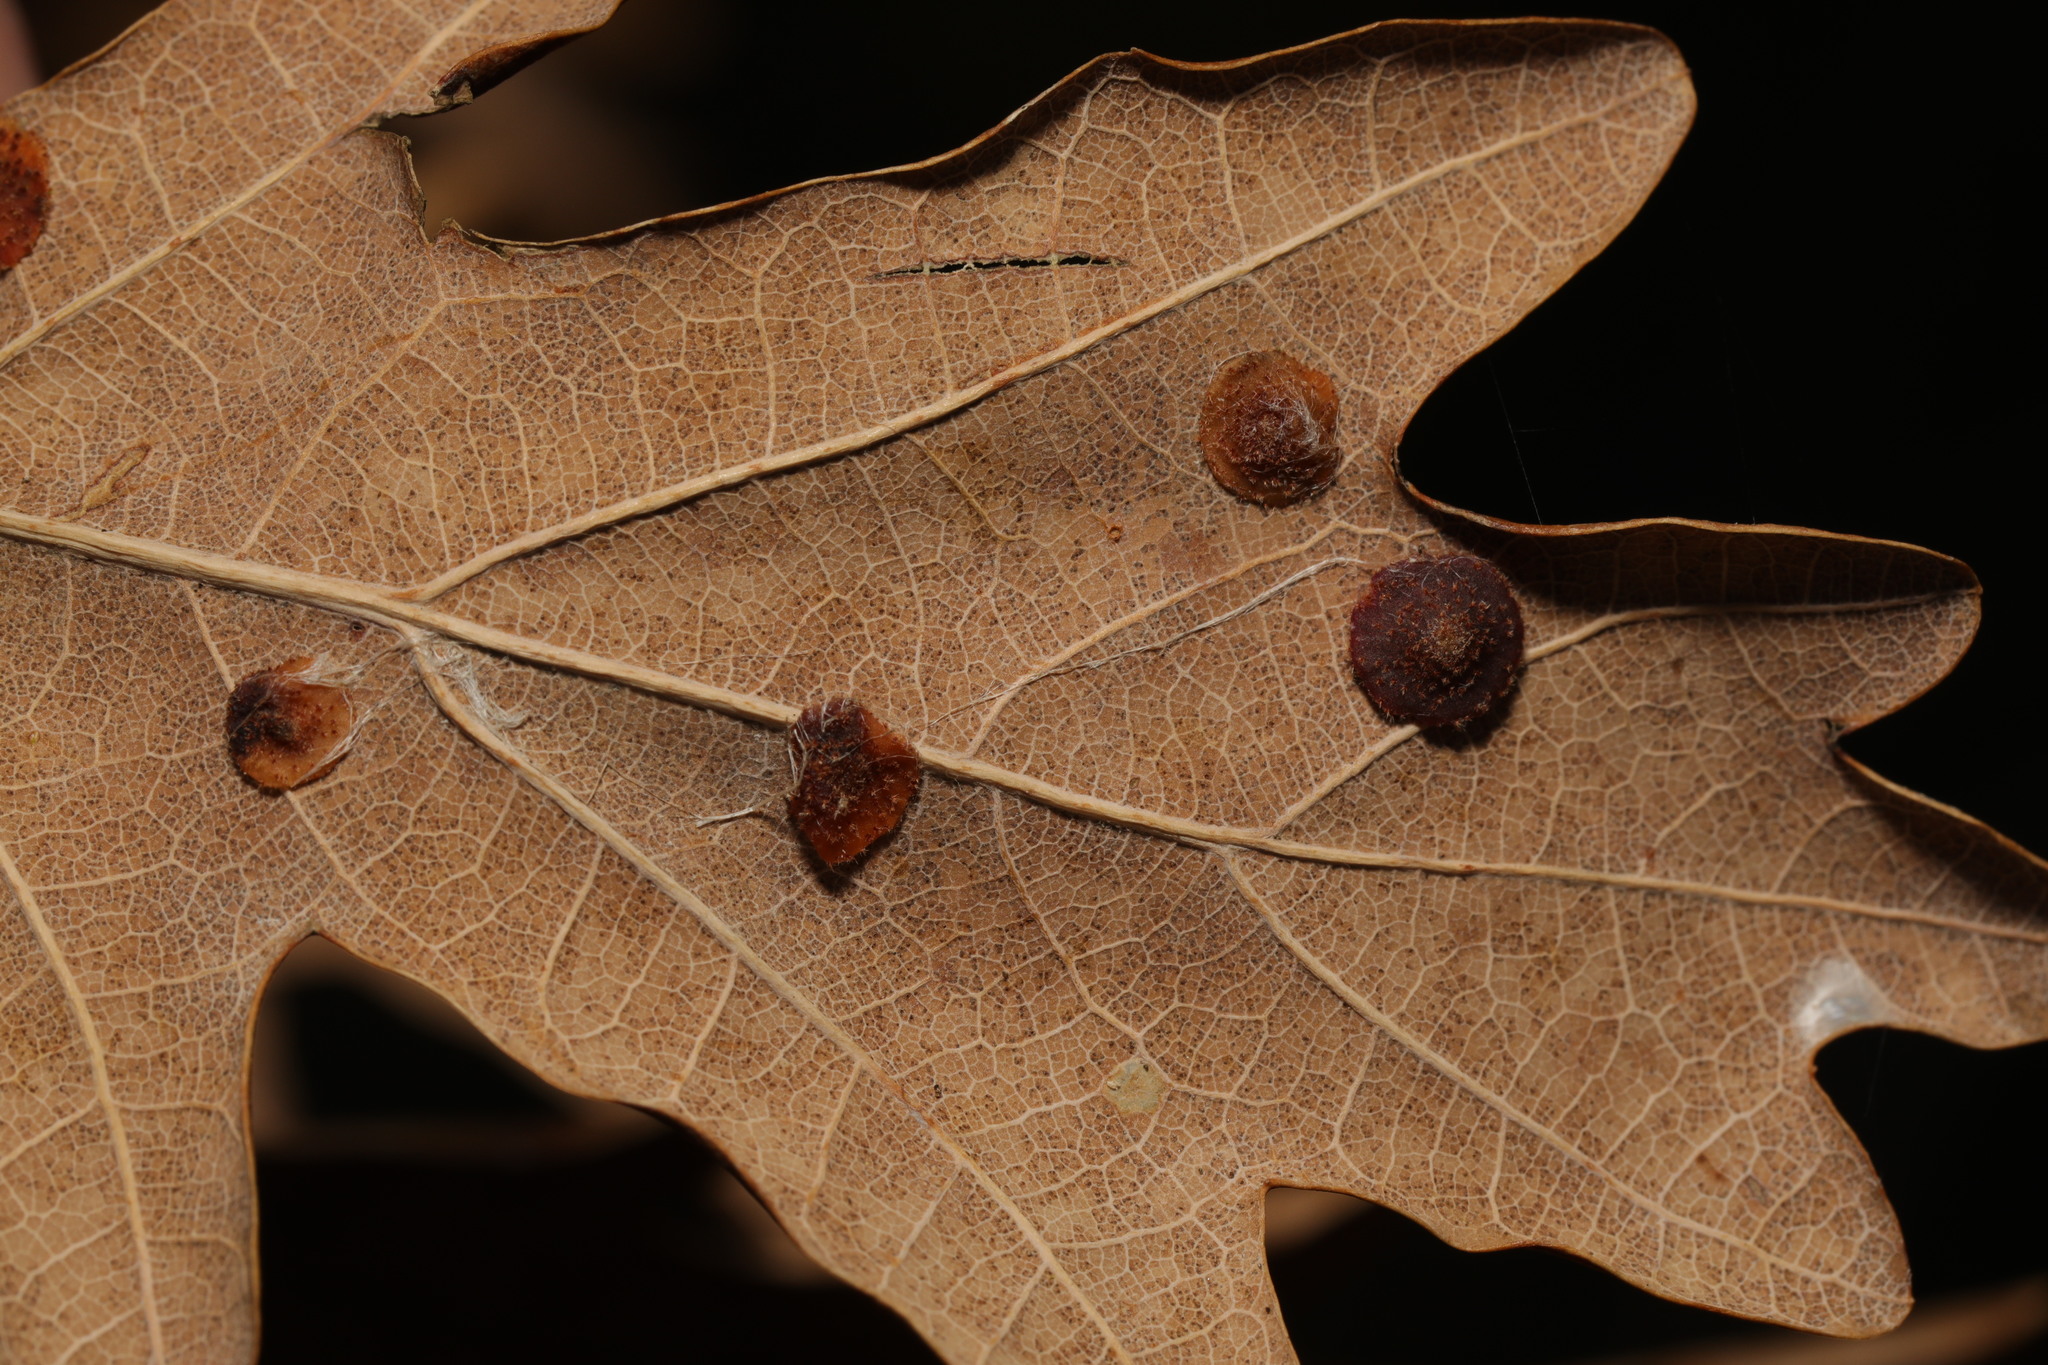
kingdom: Animalia
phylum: Arthropoda
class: Insecta
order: Hymenoptera
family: Cynipidae
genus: Neuroterus
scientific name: Neuroterus quercusbaccarum
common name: Common spangle gall
